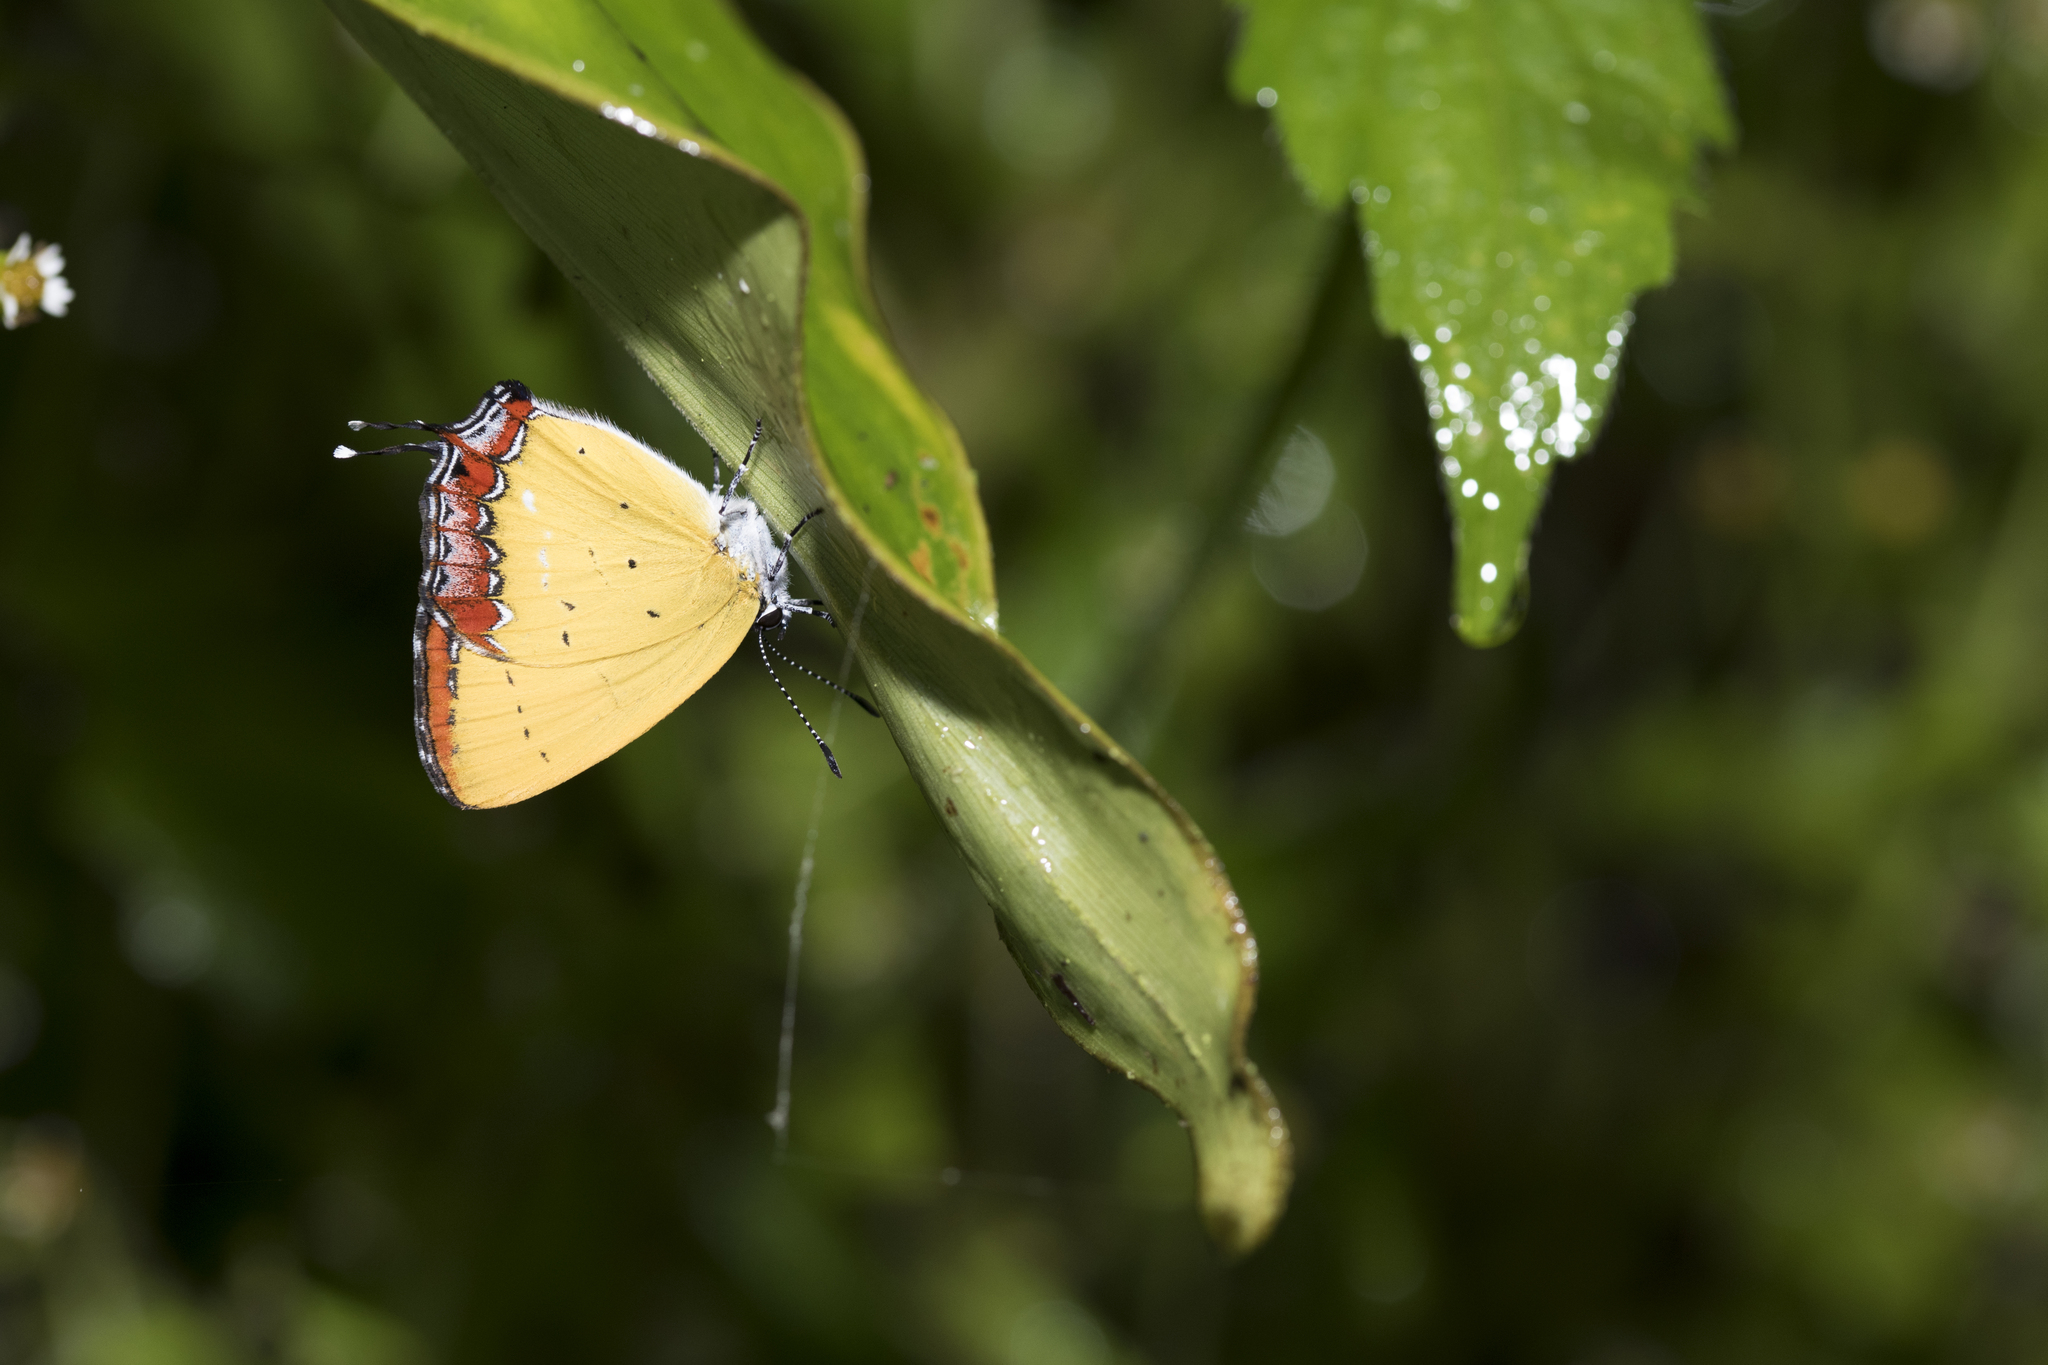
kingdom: Animalia
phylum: Arthropoda
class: Insecta
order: Lepidoptera
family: Lycaenidae
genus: Heliophorus
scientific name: Heliophorus ila
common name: Restricted purple sapphire
